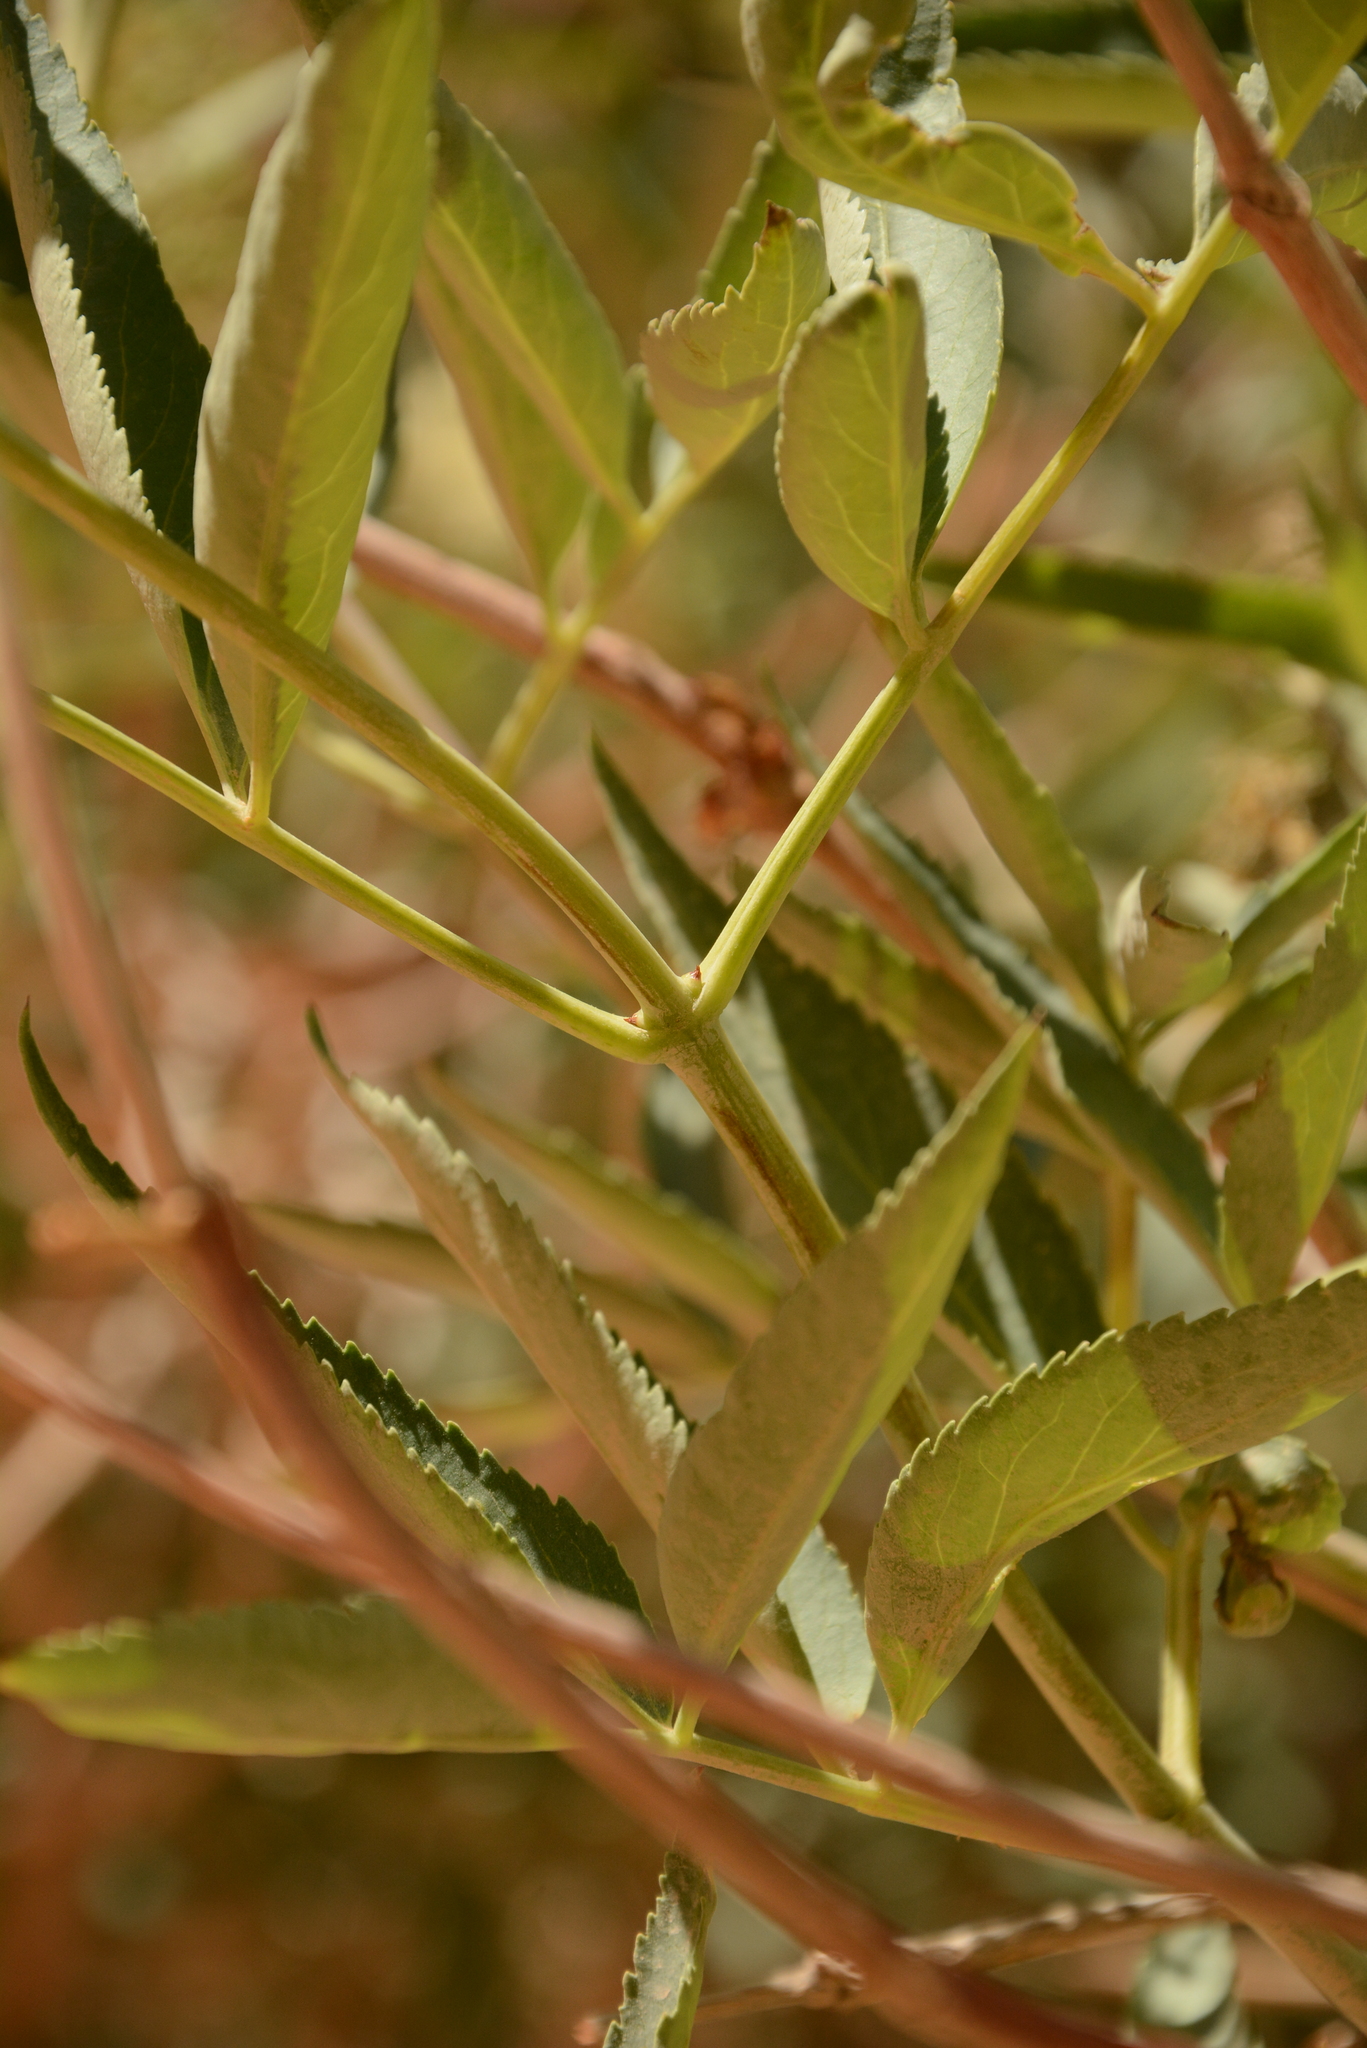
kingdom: Plantae
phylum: Tracheophyta
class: Magnoliopsida
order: Dipsacales
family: Viburnaceae
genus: Sambucus
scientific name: Sambucus cerulea
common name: Blue elder
